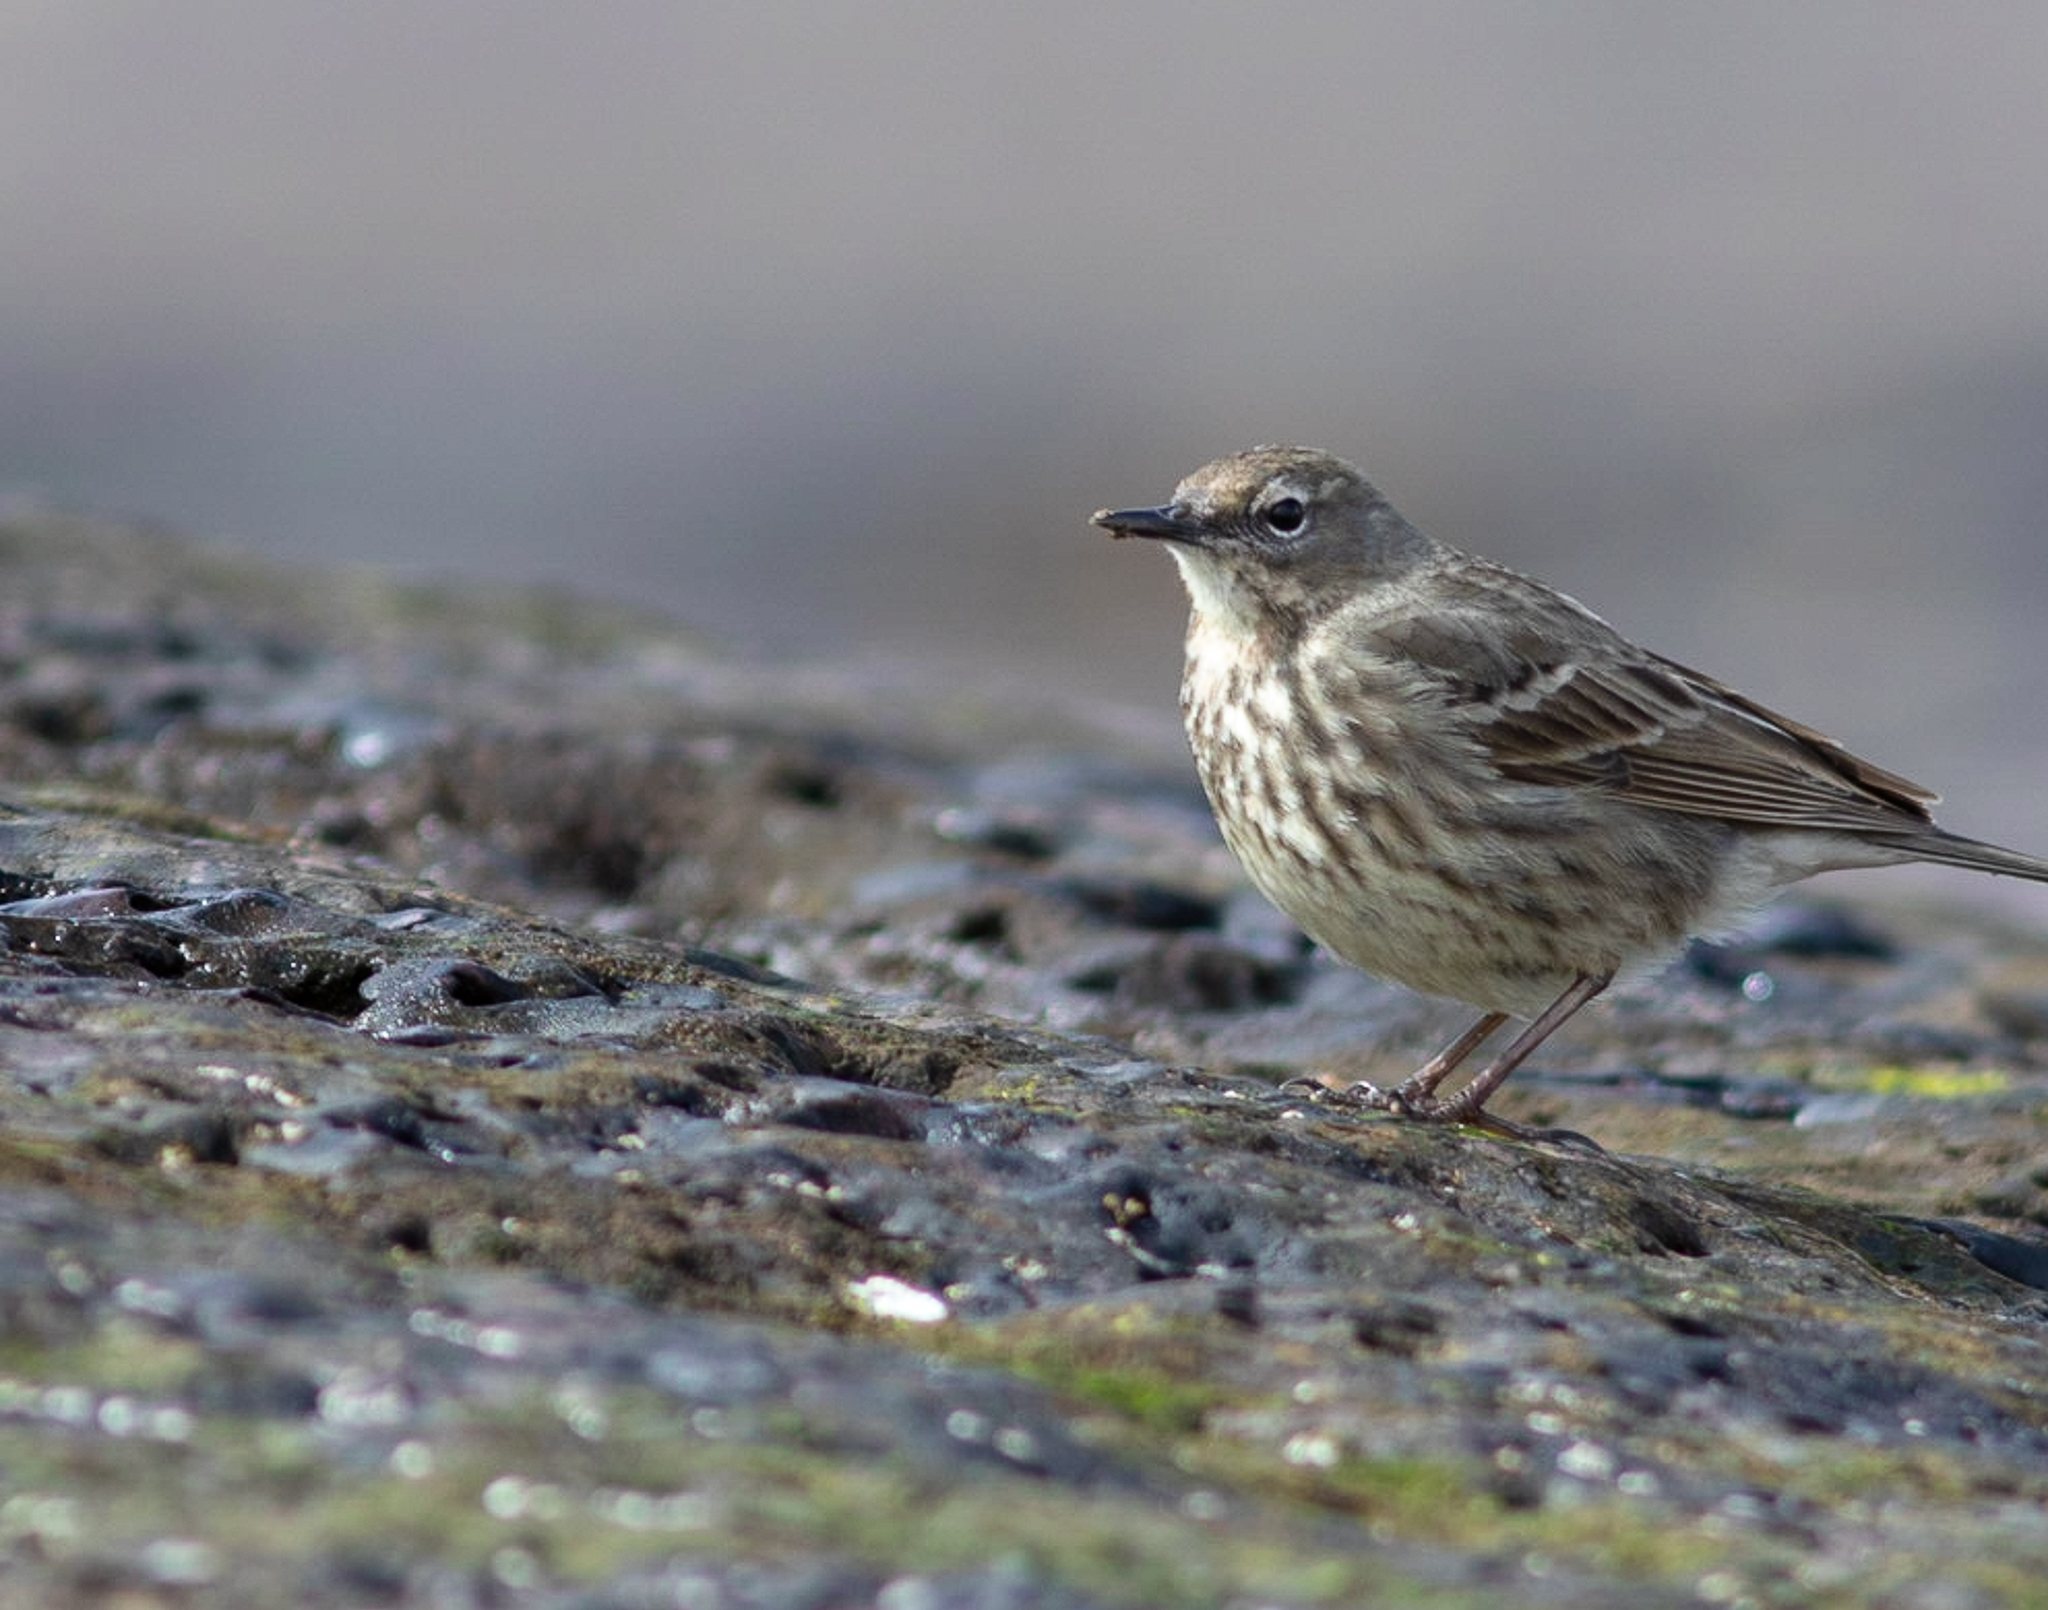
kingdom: Animalia
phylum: Chordata
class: Aves
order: Passeriformes
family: Motacillidae
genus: Anthus
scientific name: Anthus petrosus
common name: Eurasian rock pipit
